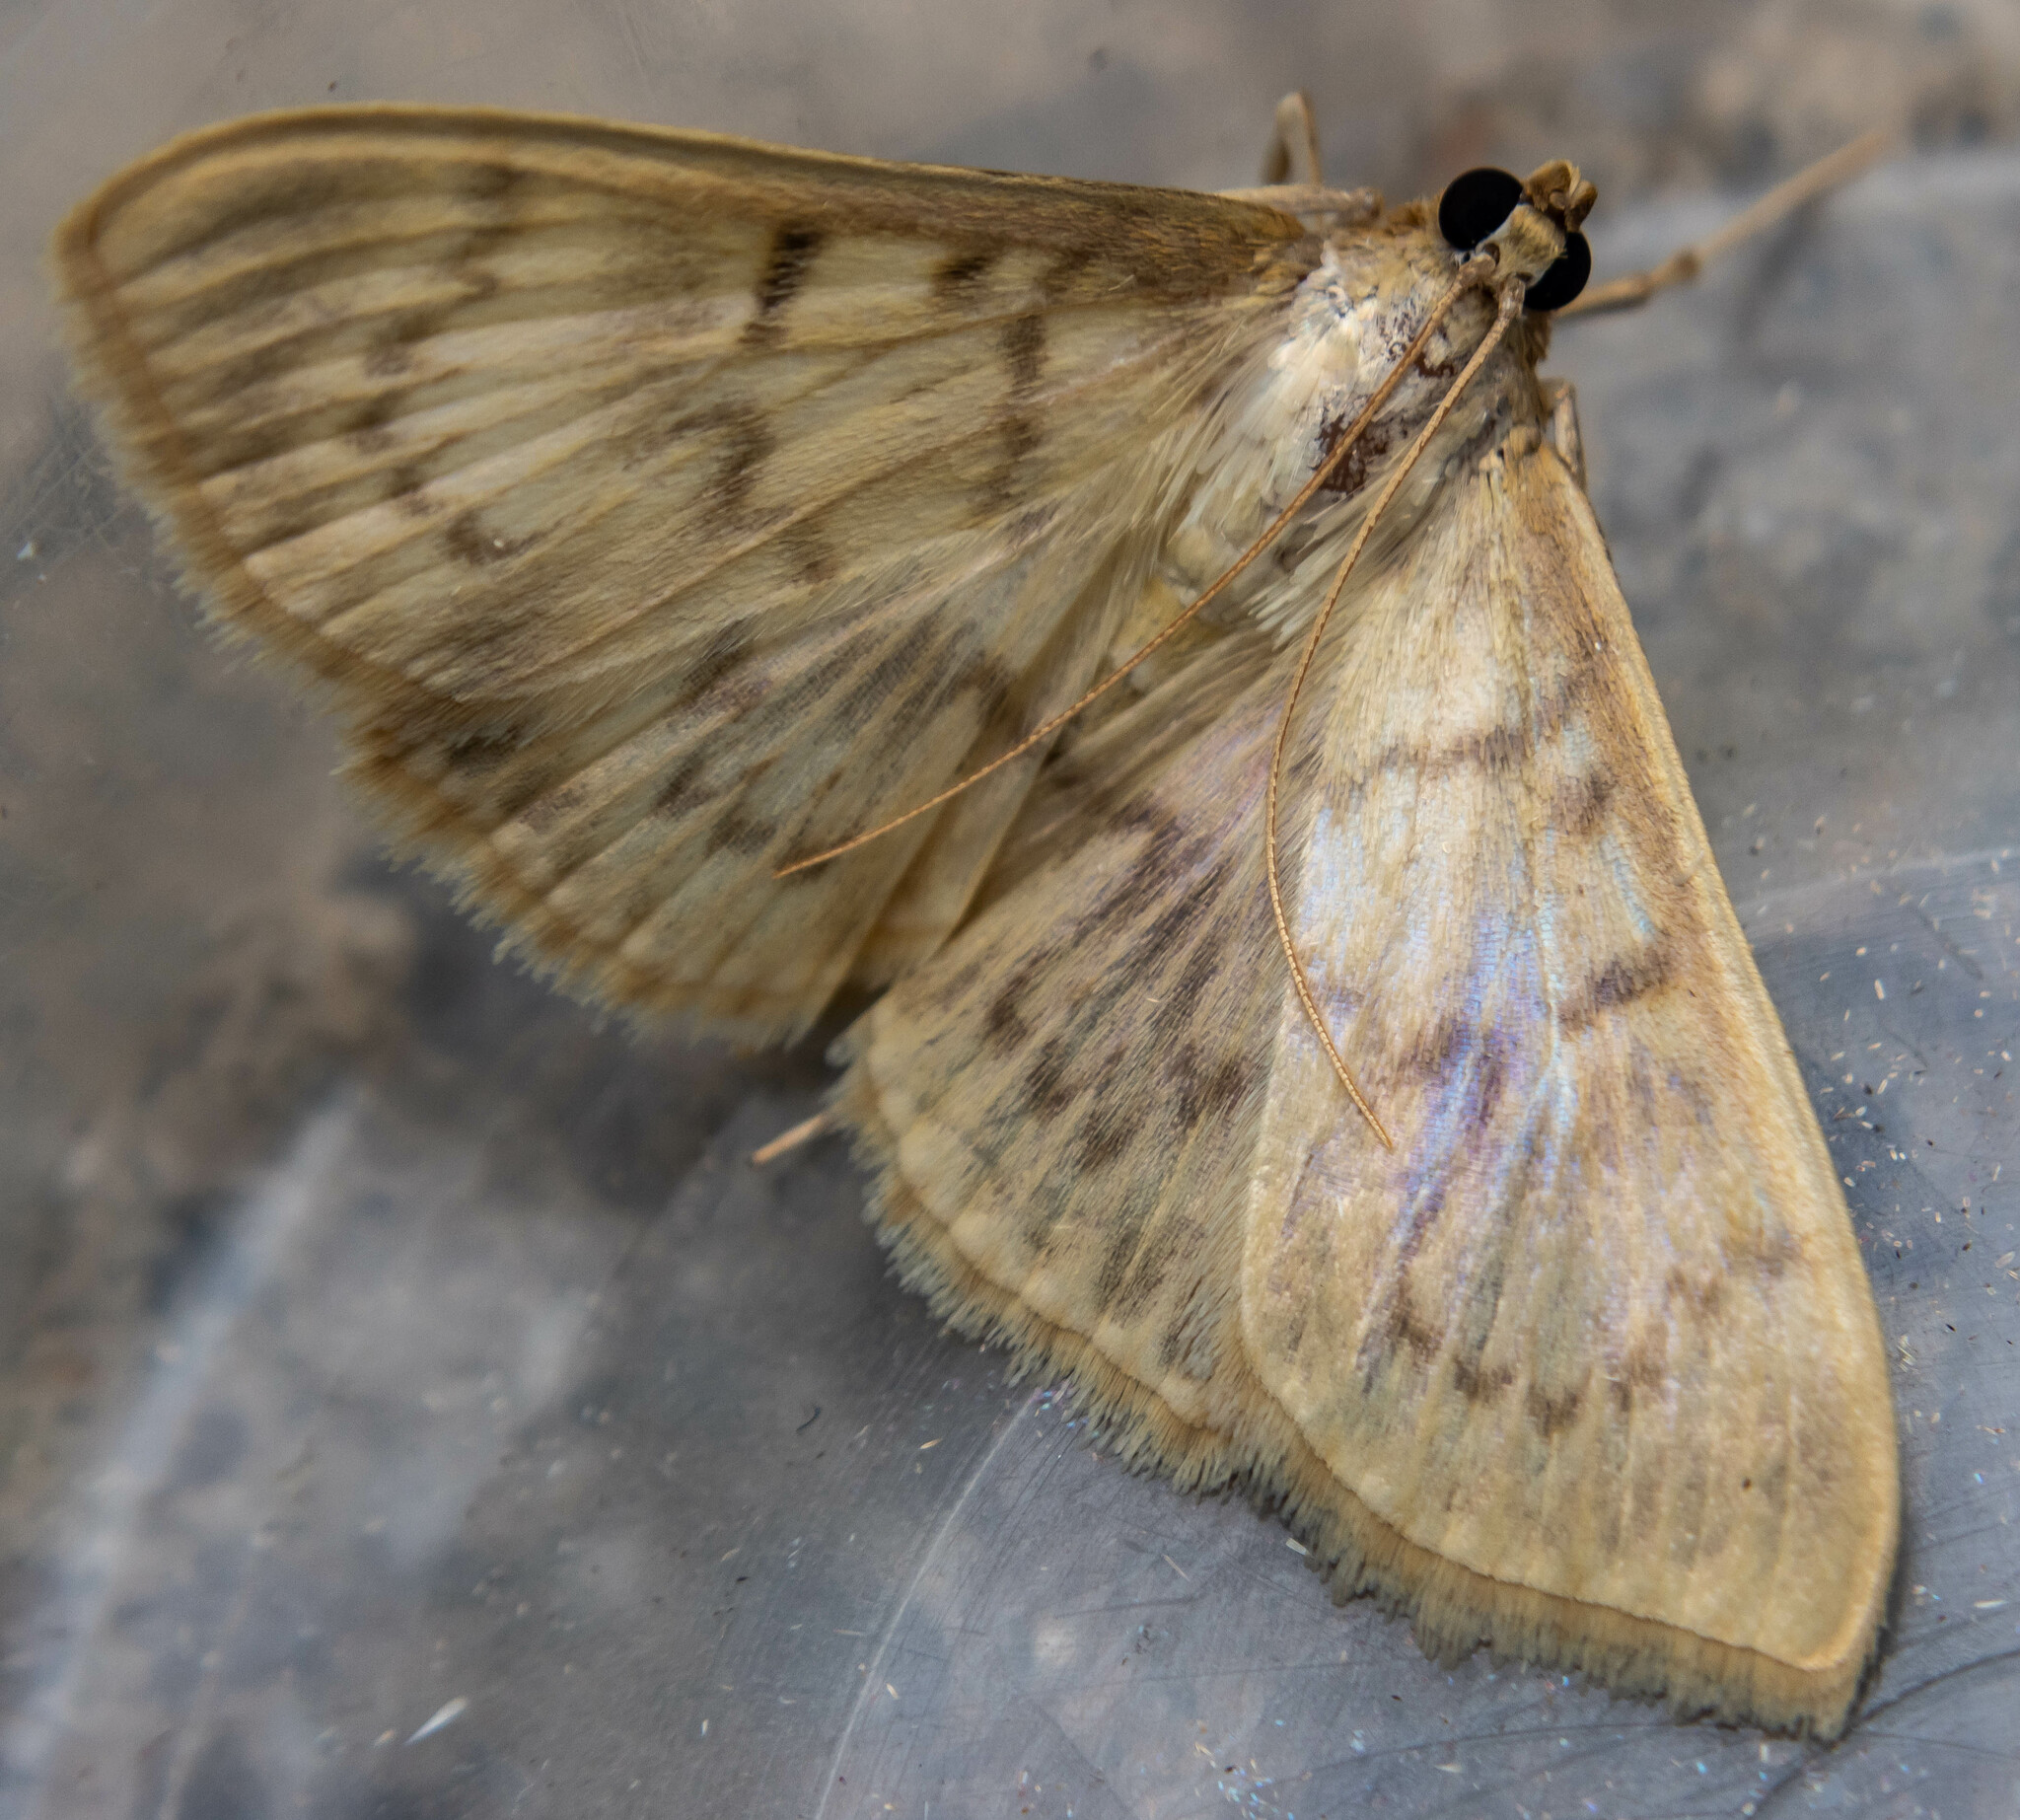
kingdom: Animalia
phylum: Arthropoda
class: Insecta
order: Lepidoptera
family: Crambidae
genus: Patania
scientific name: Patania ruralis
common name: Mother of pearl
